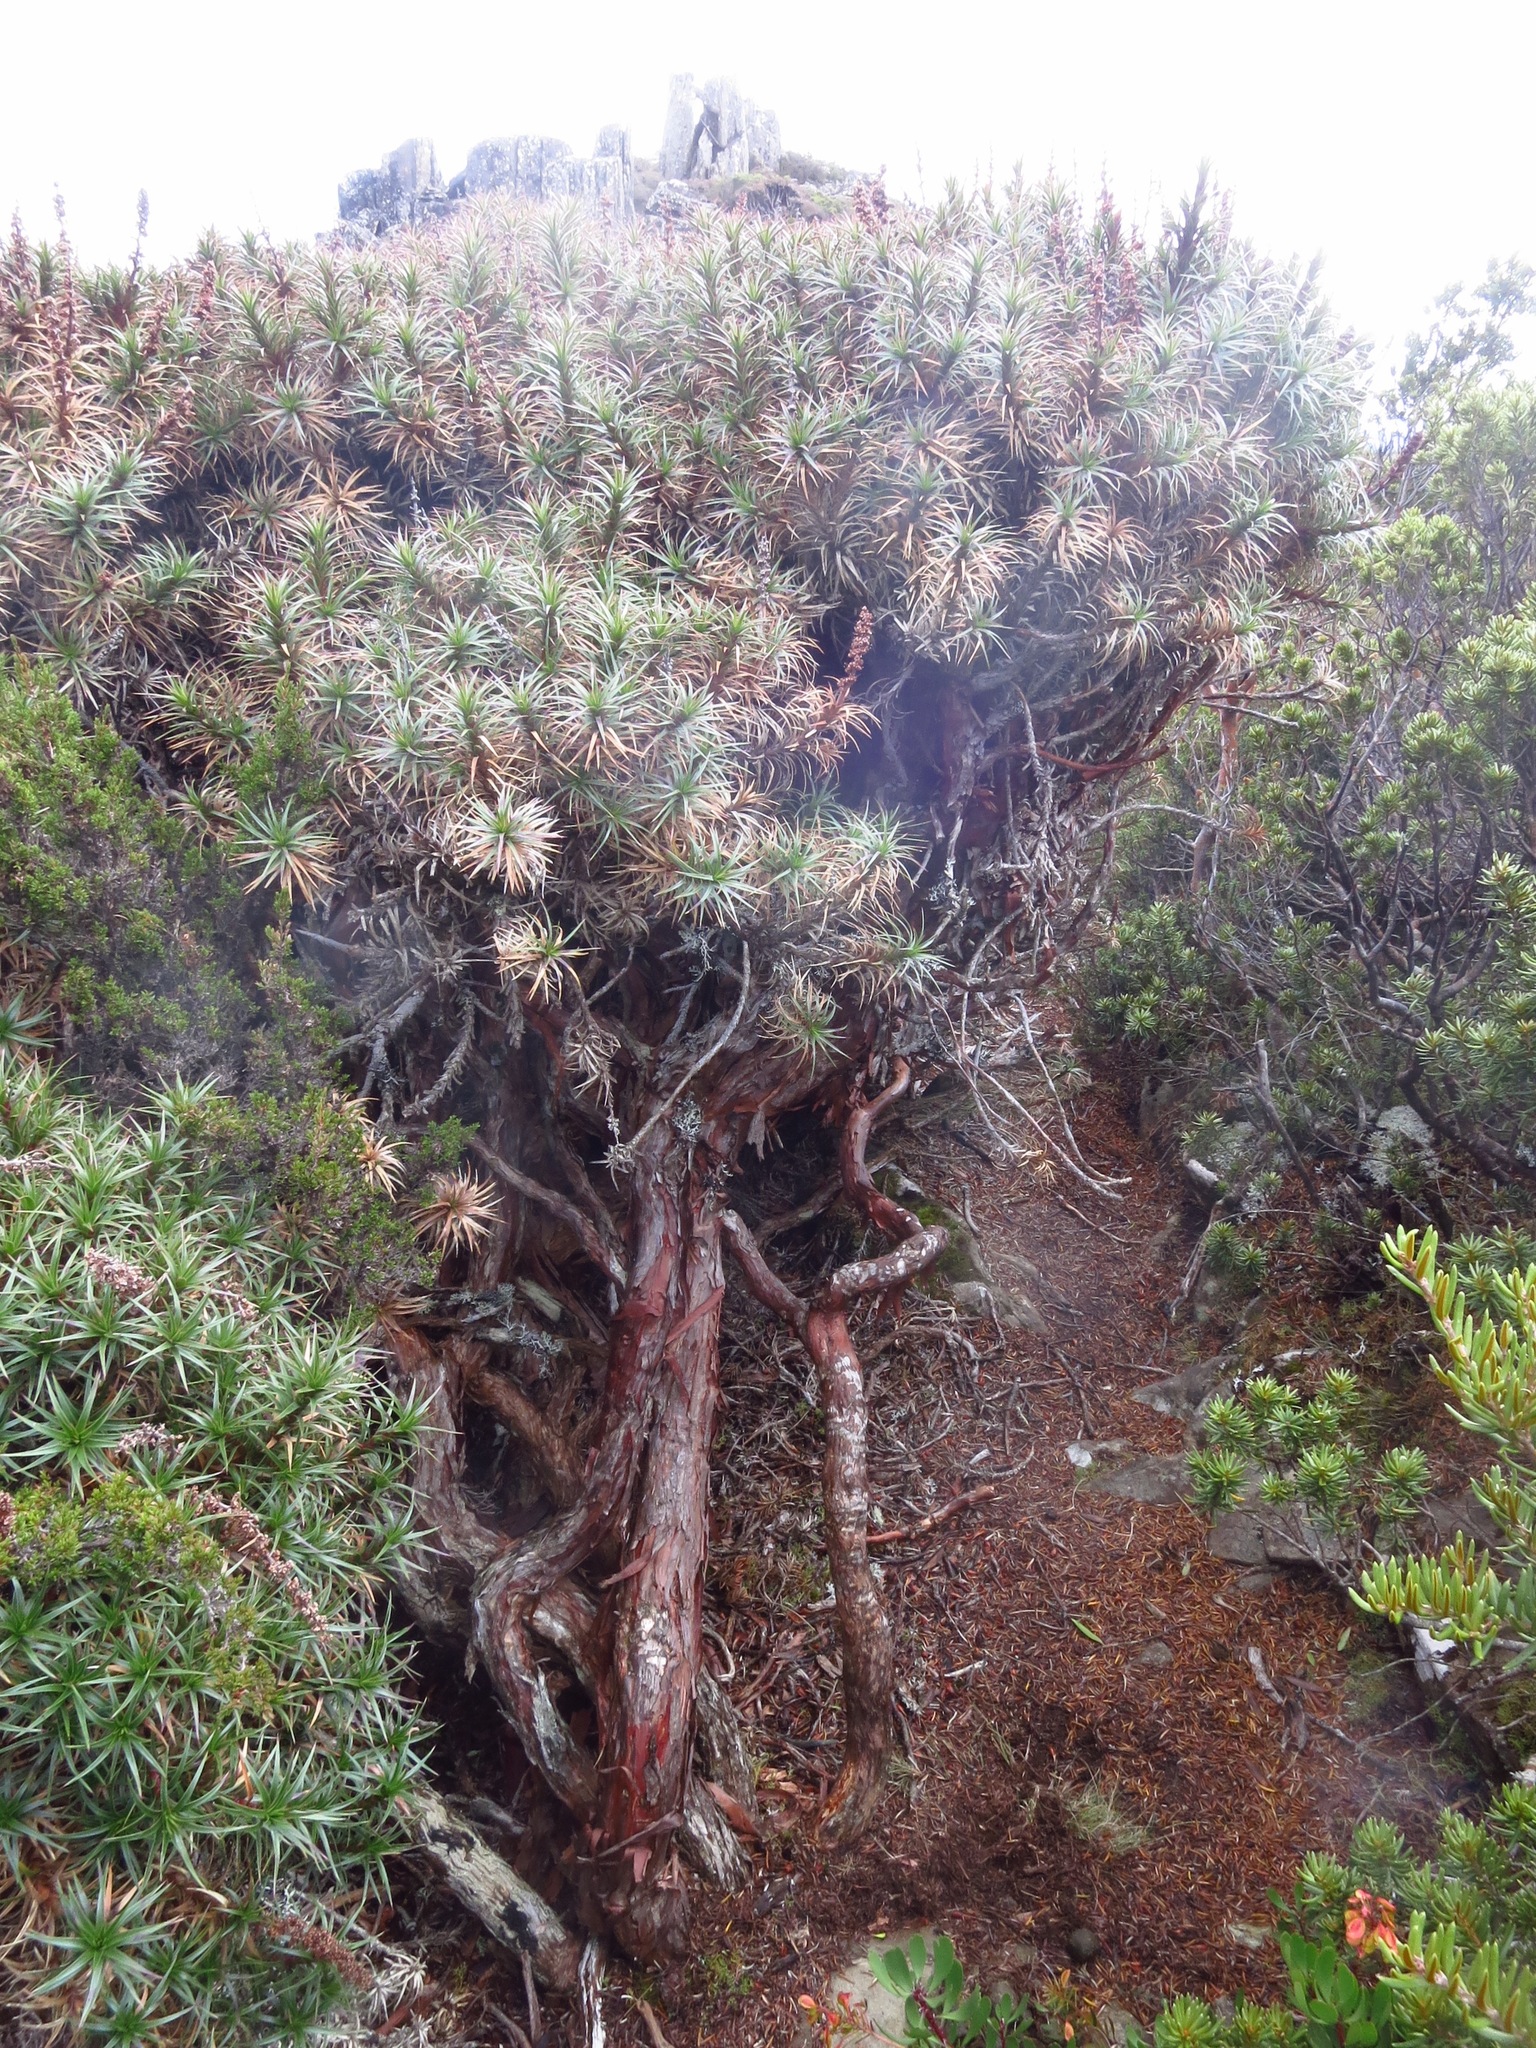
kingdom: Plantae
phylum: Tracheophyta
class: Magnoliopsida
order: Ericales
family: Ericaceae
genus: Dracophyllum
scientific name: Dracophyllum persistentifolium
